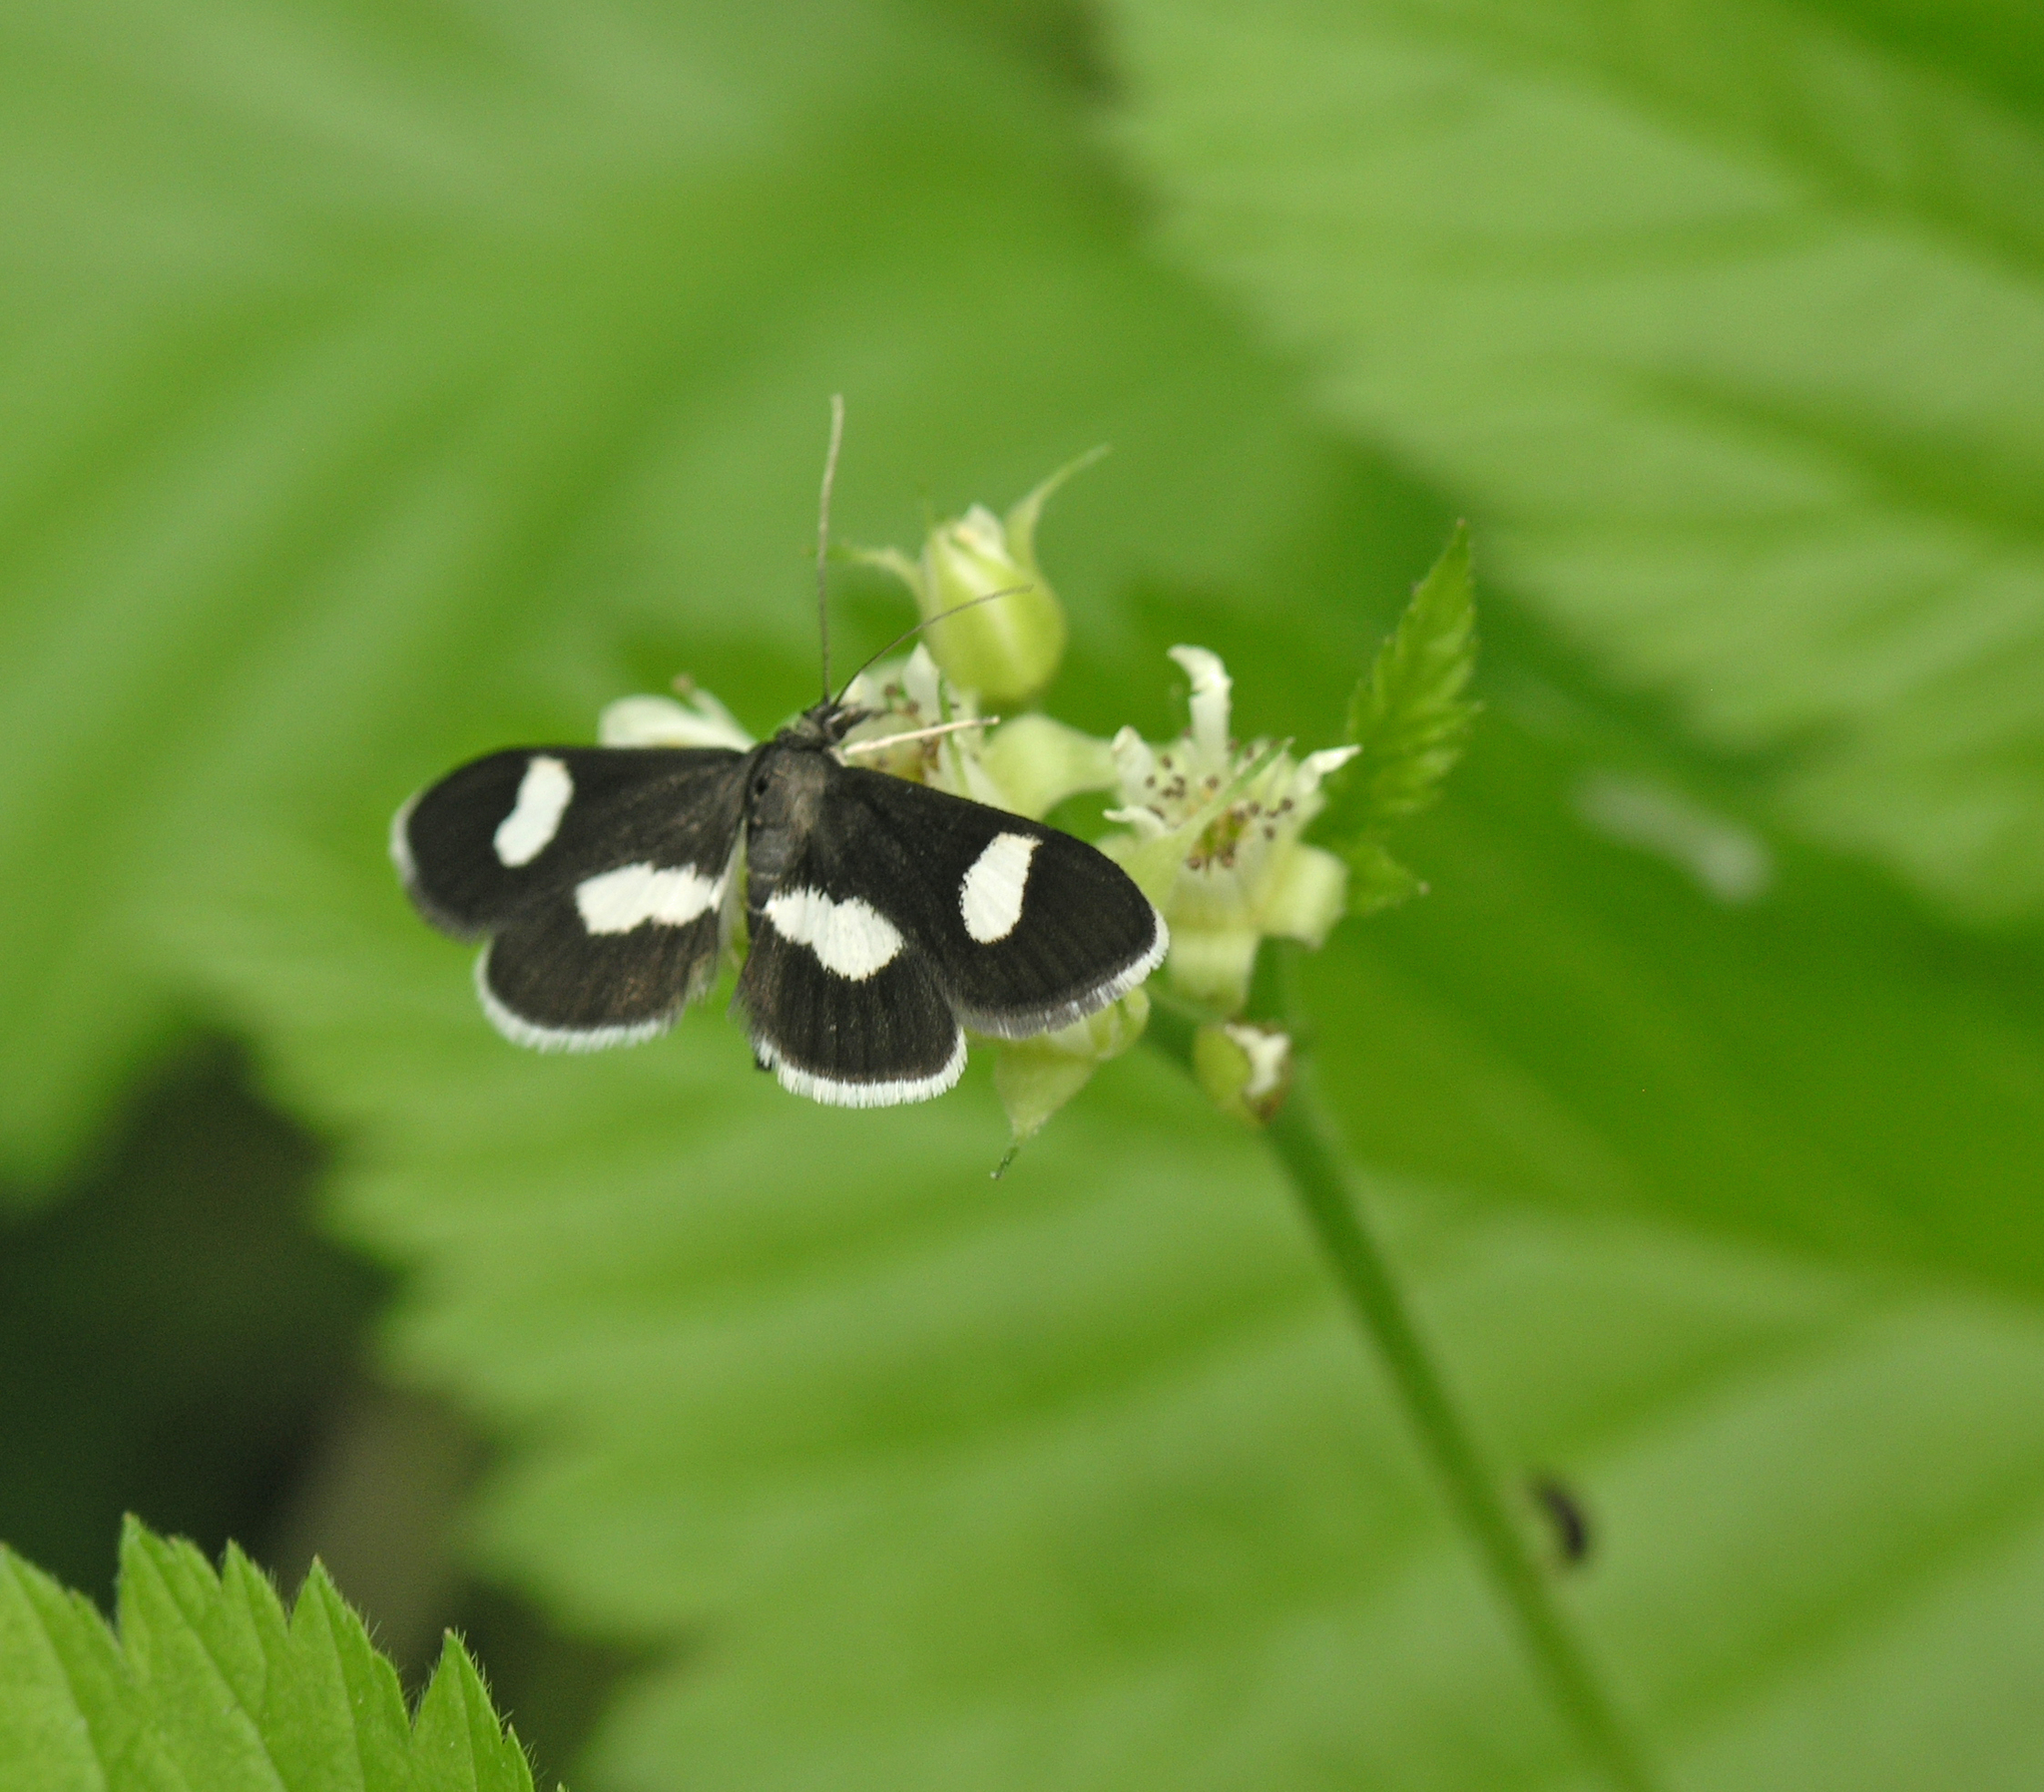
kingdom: Plantae
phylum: Tracheophyta
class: Magnoliopsida
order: Rosales
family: Rosaceae
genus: Rubus
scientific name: Rubus saxatilis
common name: Stone bramble
